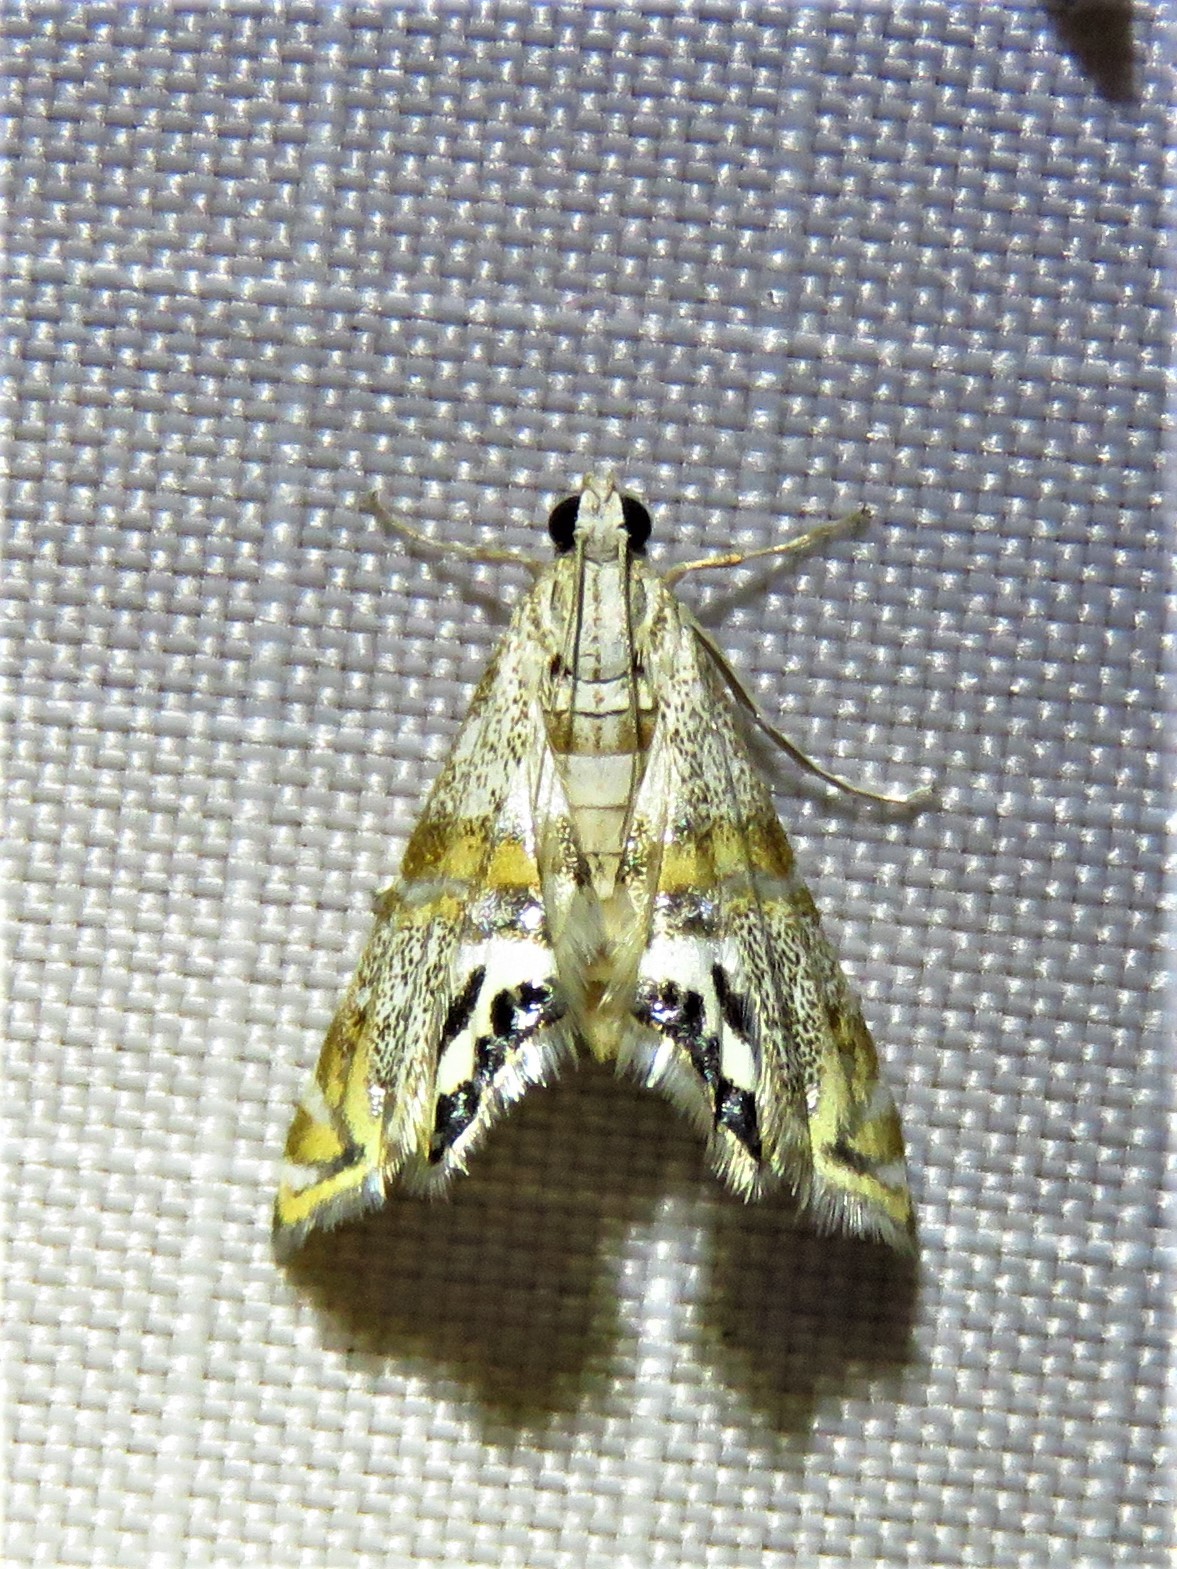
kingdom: Animalia
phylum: Arthropoda
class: Insecta
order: Lepidoptera
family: Crambidae
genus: Petrophila
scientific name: Petrophila bifascialis
